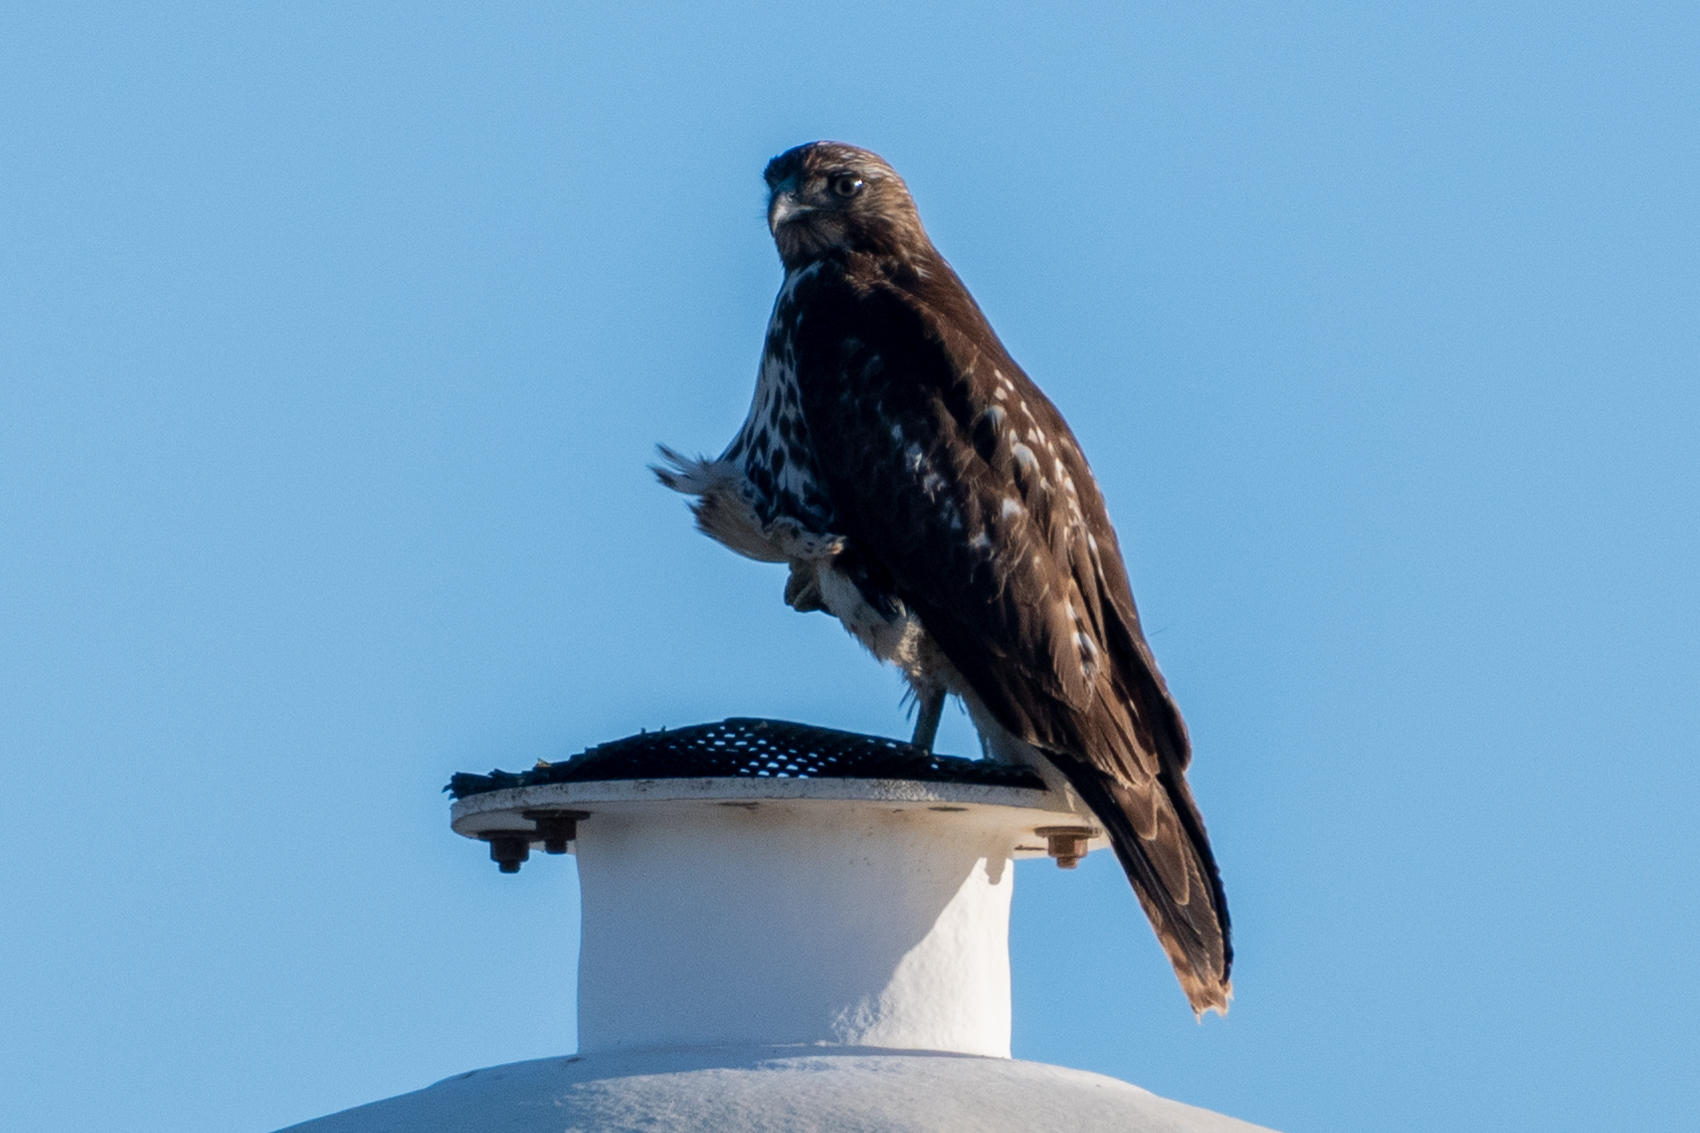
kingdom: Animalia
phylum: Chordata
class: Aves
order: Accipitriformes
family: Accipitridae
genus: Buteo
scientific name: Buteo jamaicensis
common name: Red-tailed hawk
